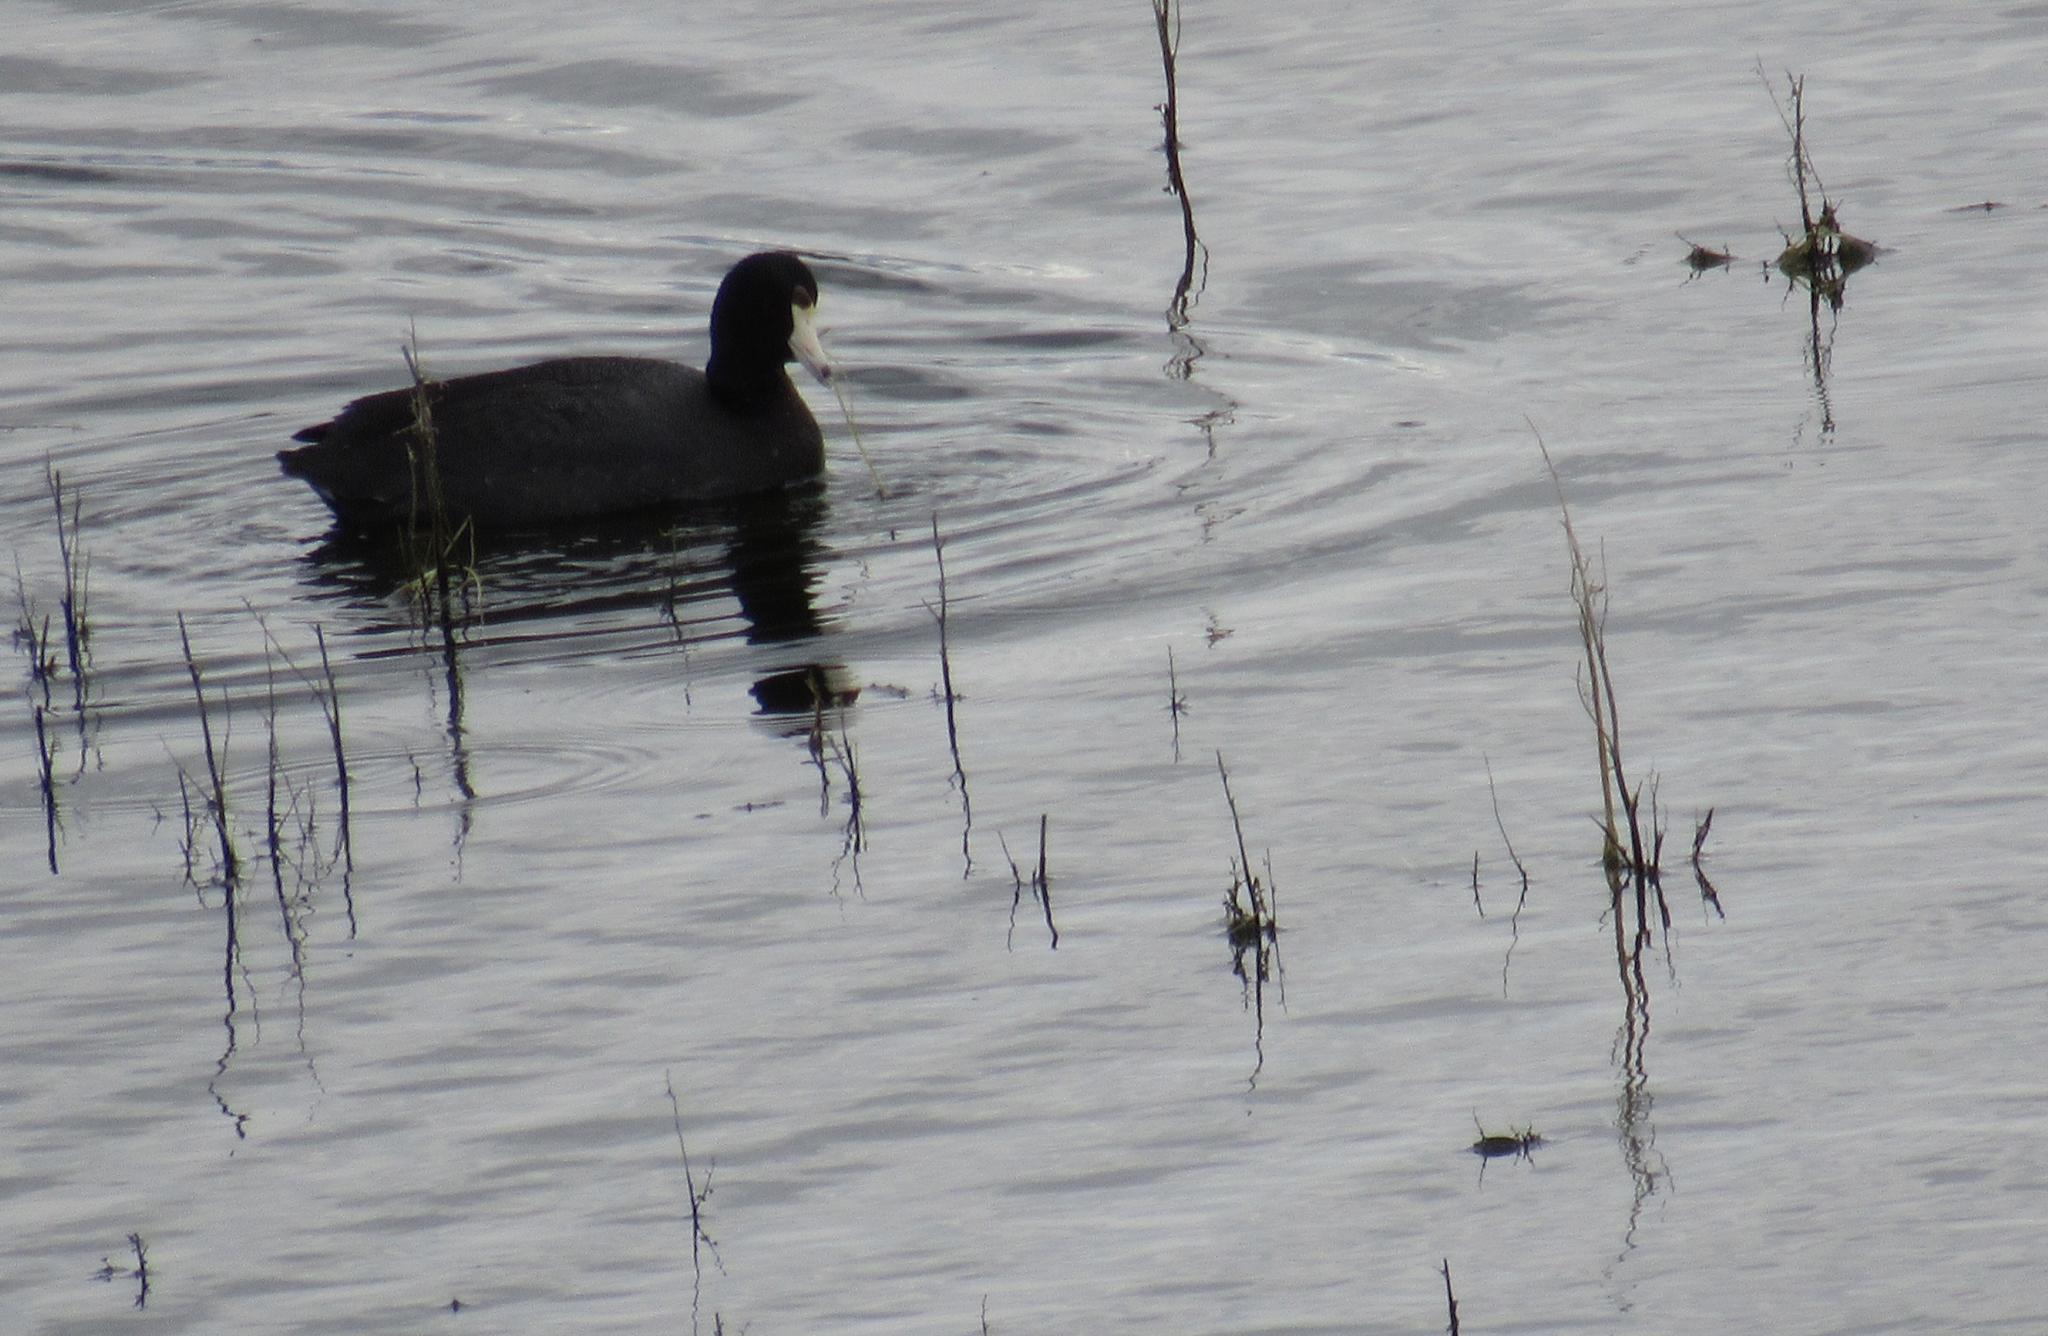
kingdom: Animalia
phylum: Chordata
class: Aves
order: Gruiformes
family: Rallidae
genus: Fulica
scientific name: Fulica americana
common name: American coot
